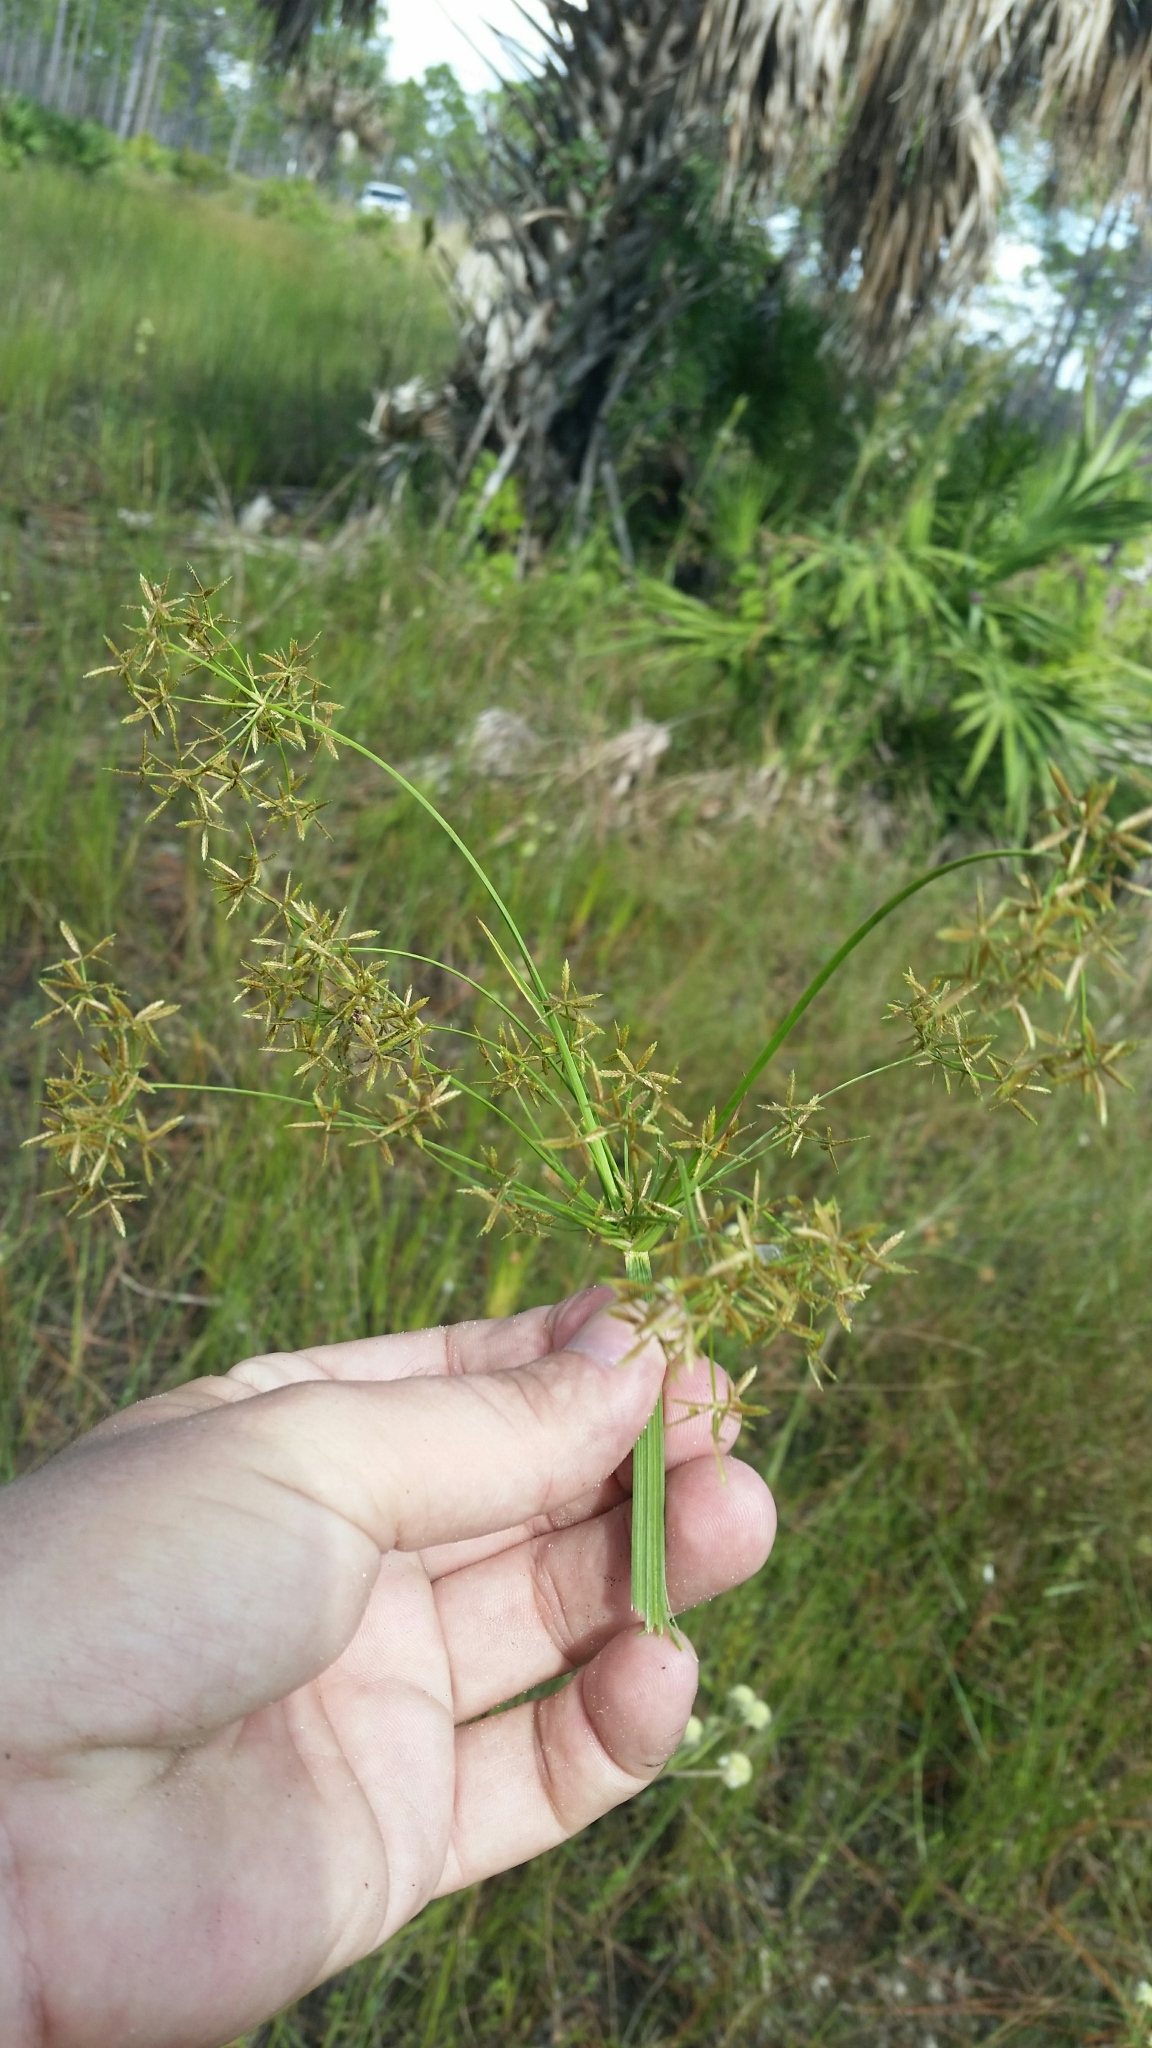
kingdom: Plantae
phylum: Tracheophyta
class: Liliopsida
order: Poales
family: Cyperaceae
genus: Cyperus
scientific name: Cyperus haspan
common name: Haspan flatsedge
